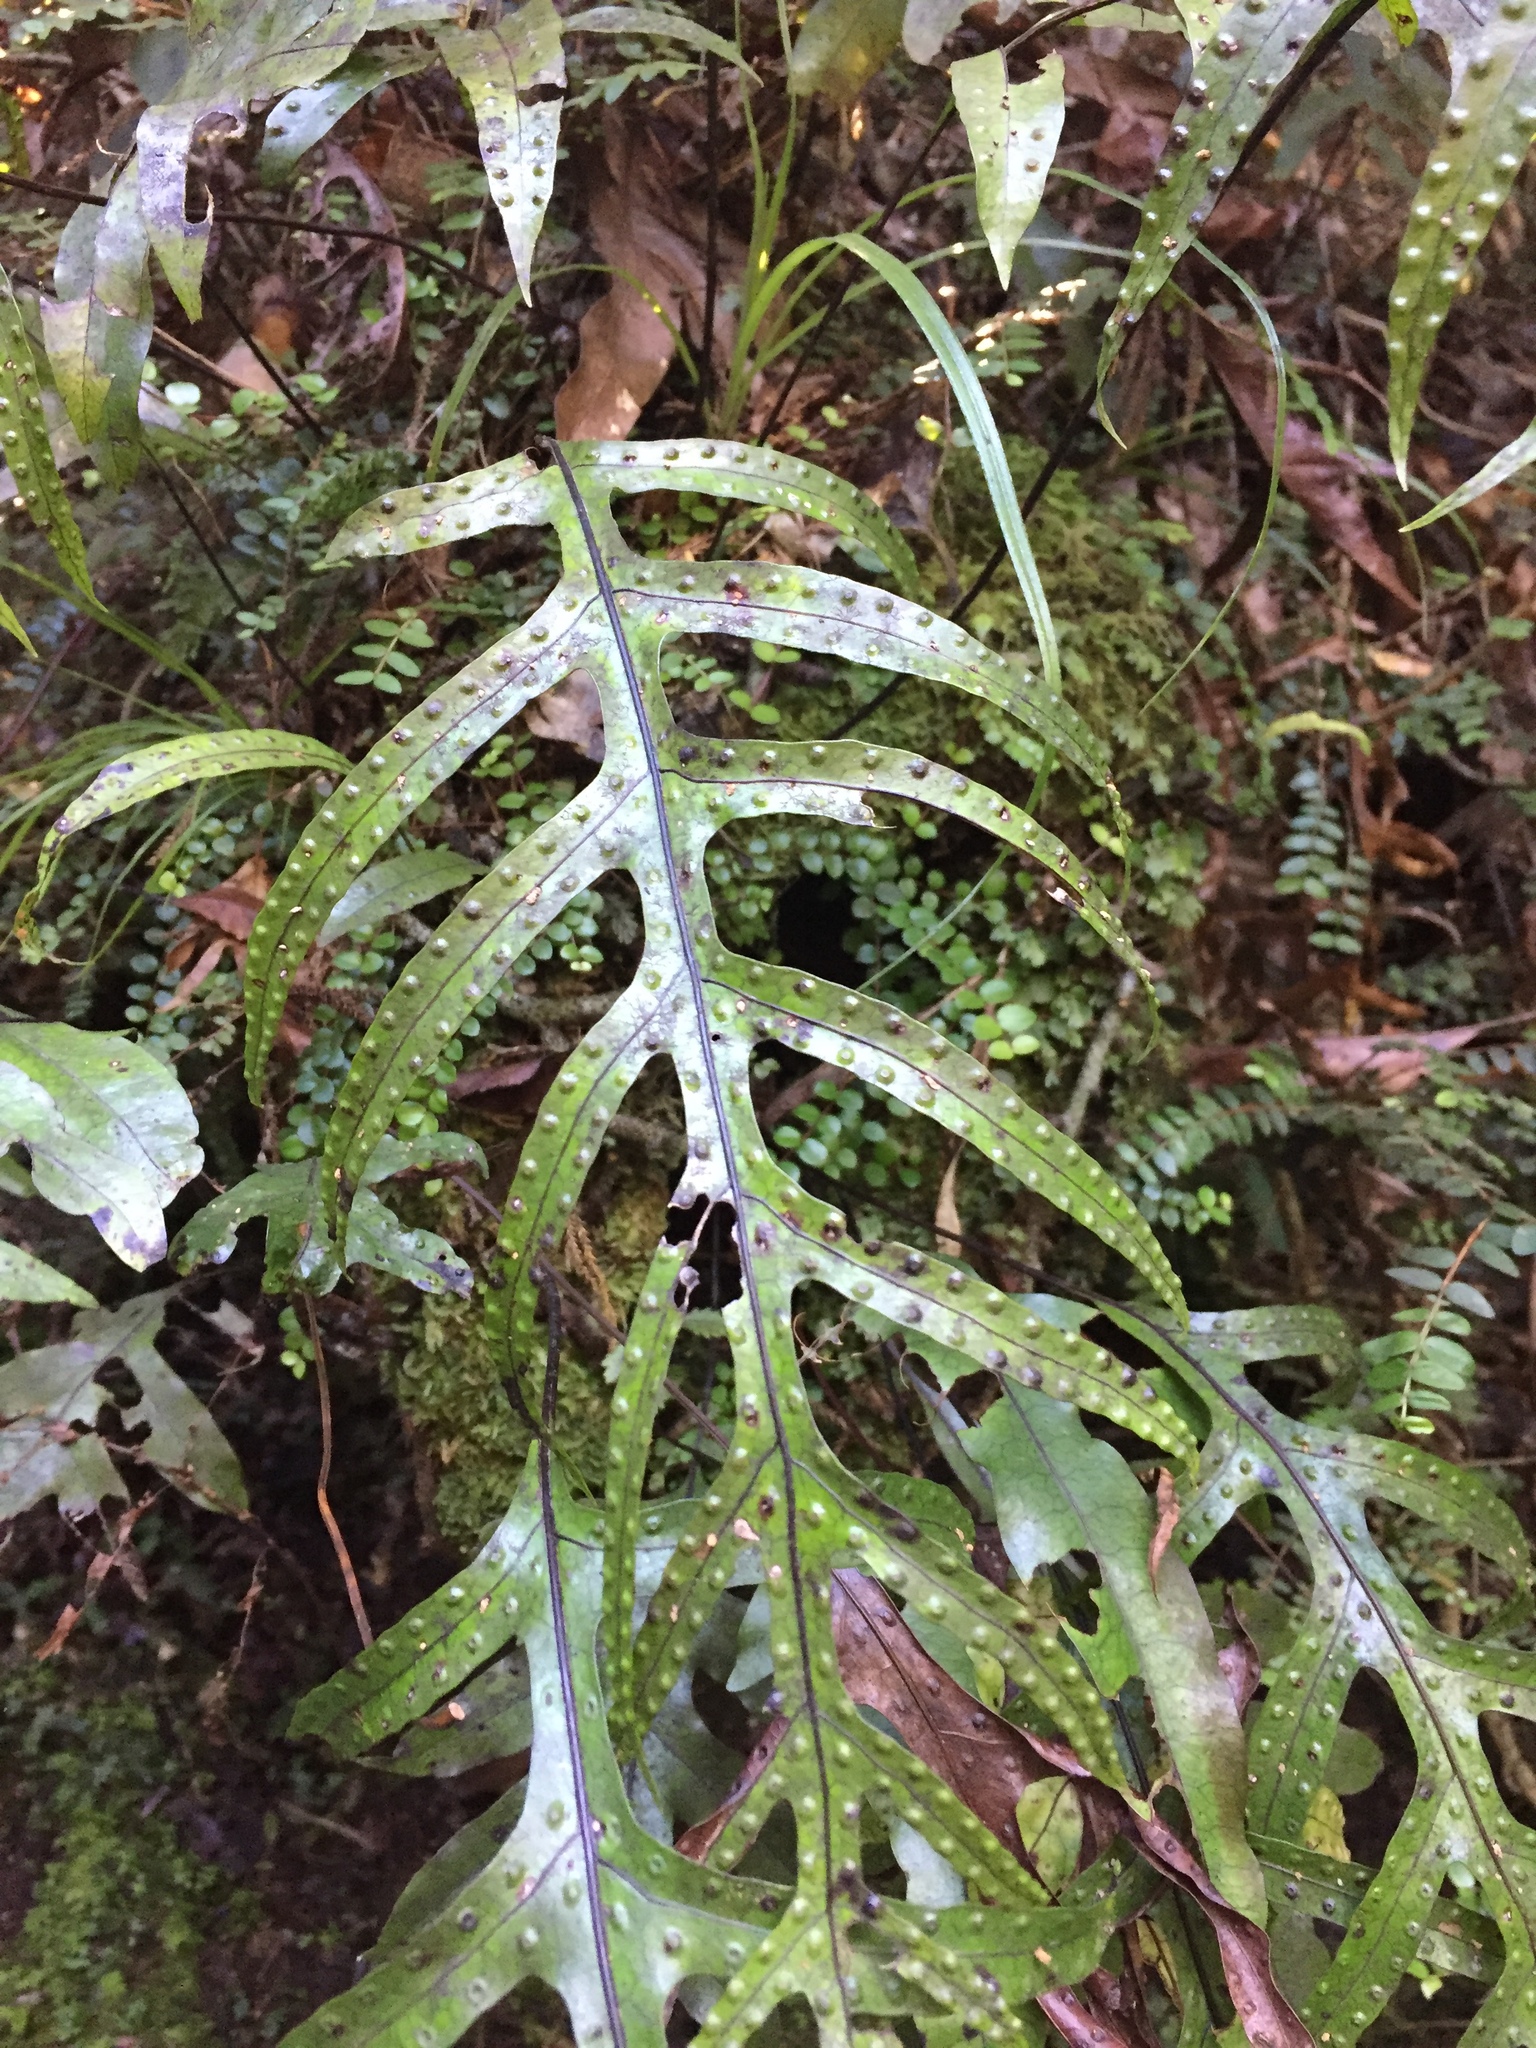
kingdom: Plantae
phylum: Tracheophyta
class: Polypodiopsida
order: Polypodiales
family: Polypodiaceae
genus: Lecanopteris
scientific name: Lecanopteris pustulata
